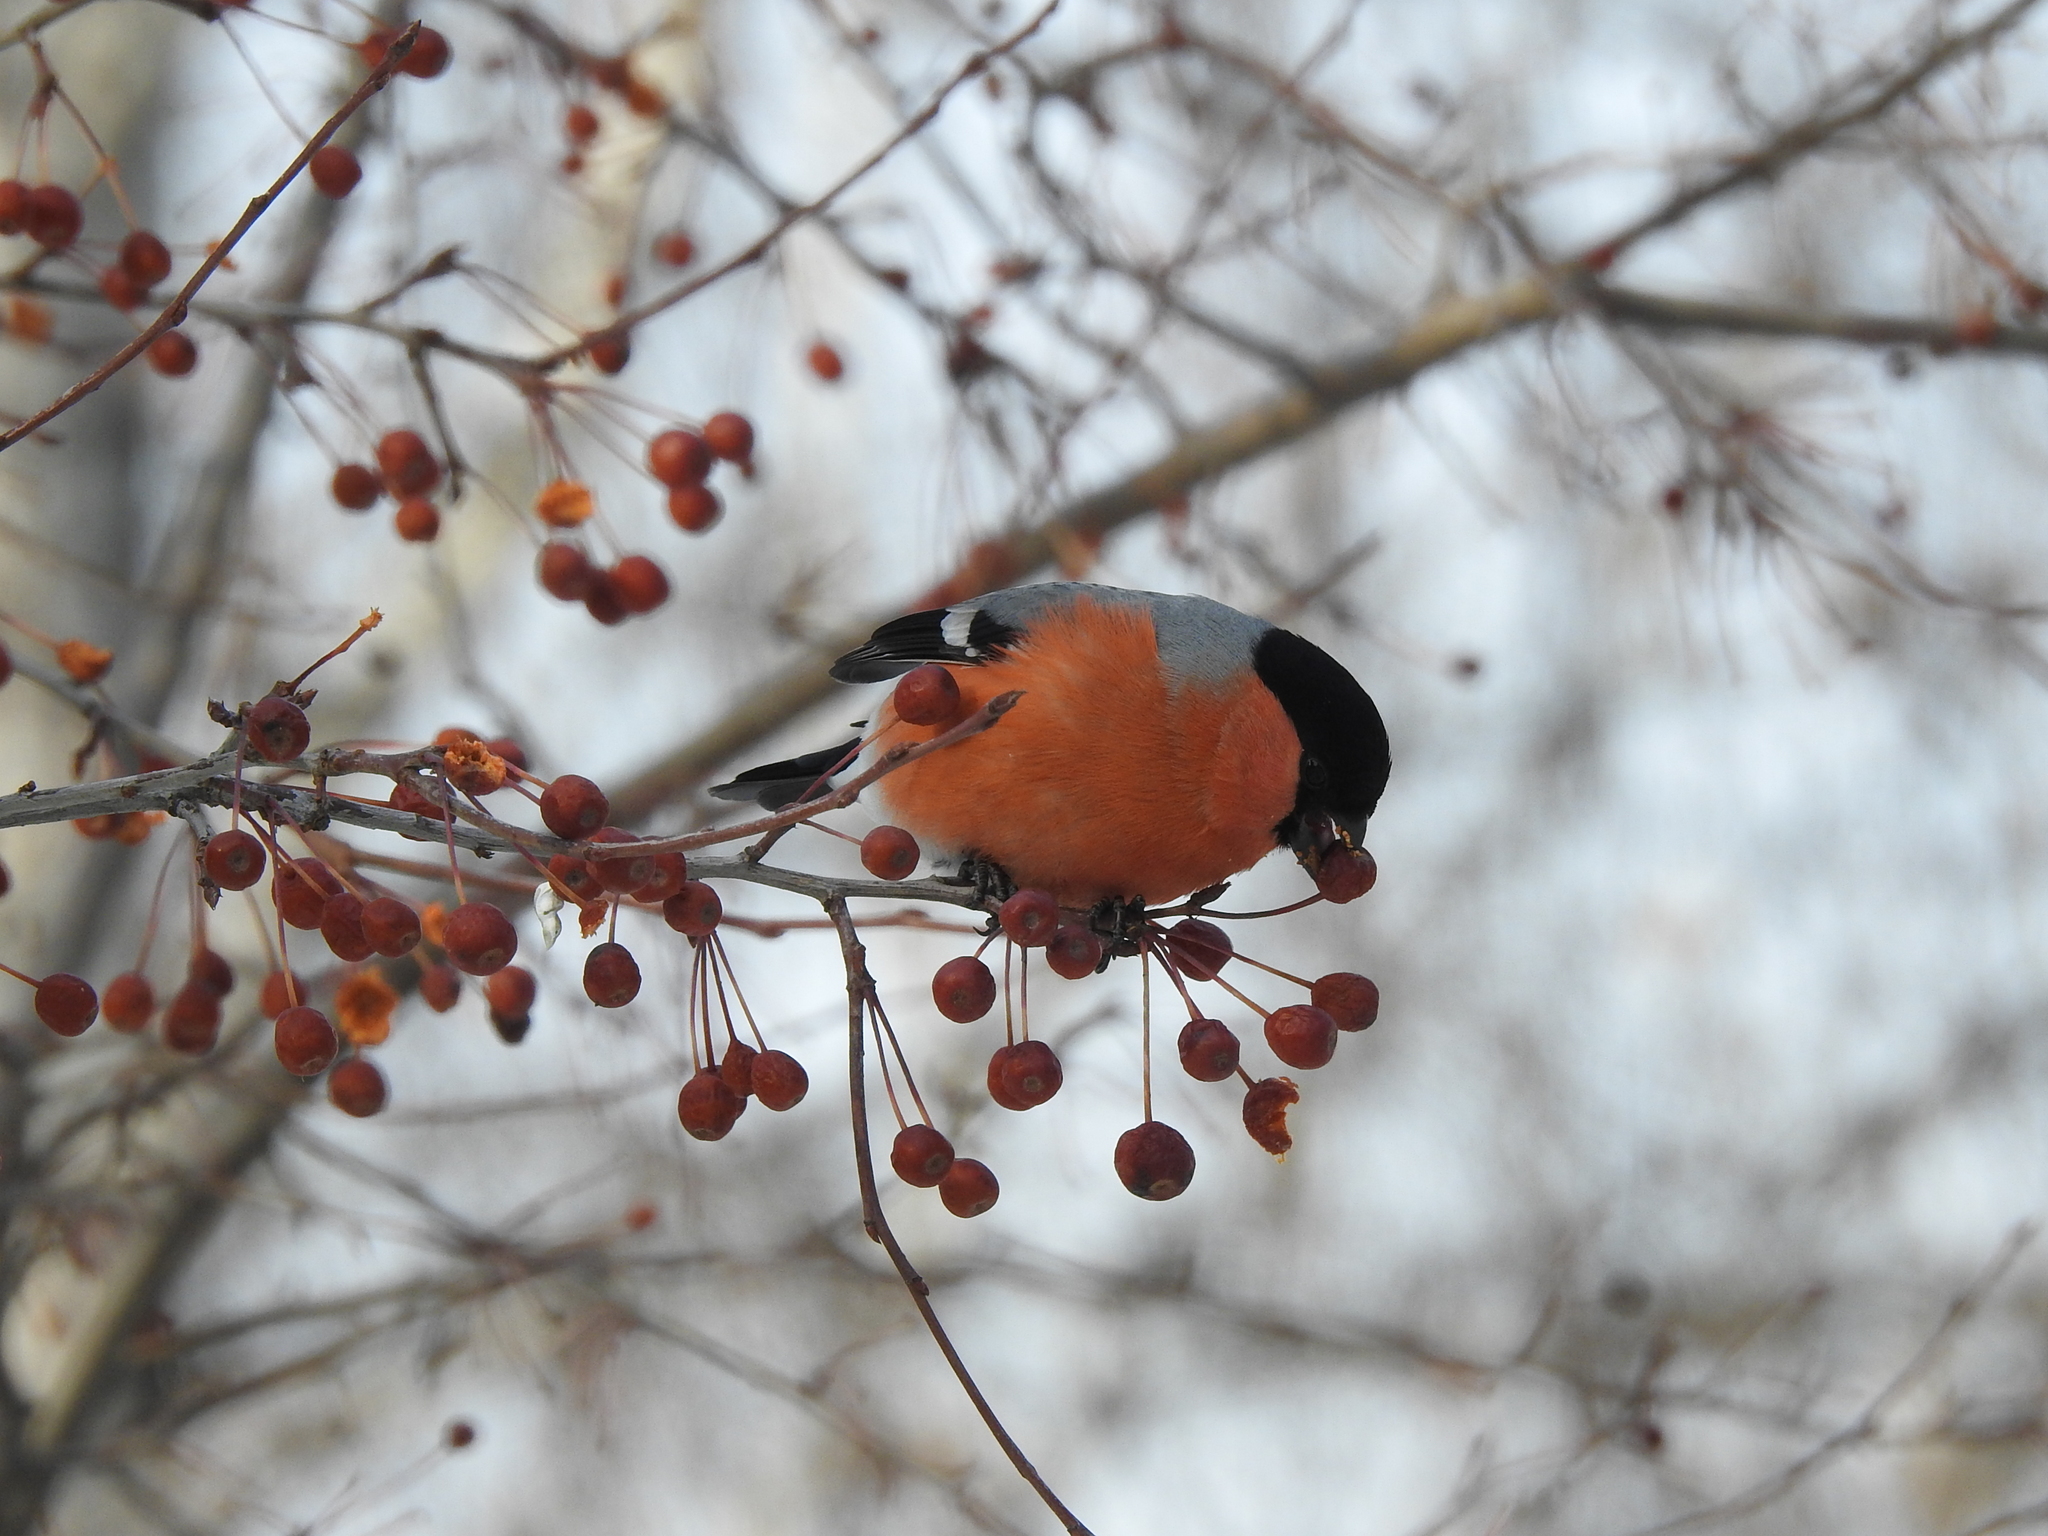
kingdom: Animalia
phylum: Chordata
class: Aves
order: Passeriformes
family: Fringillidae
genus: Pyrrhula
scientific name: Pyrrhula pyrrhula
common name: Eurasian bullfinch
